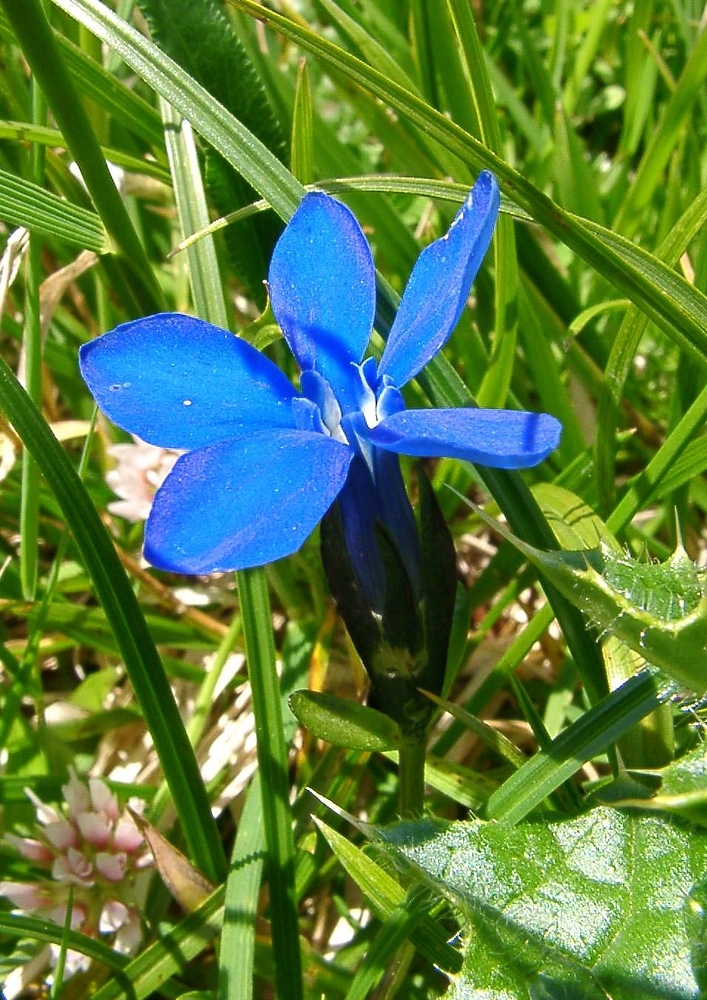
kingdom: Plantae
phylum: Tracheophyta
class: Magnoliopsida
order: Gentianales
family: Gentianaceae
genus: Gentiana
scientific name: Gentiana bavarica
